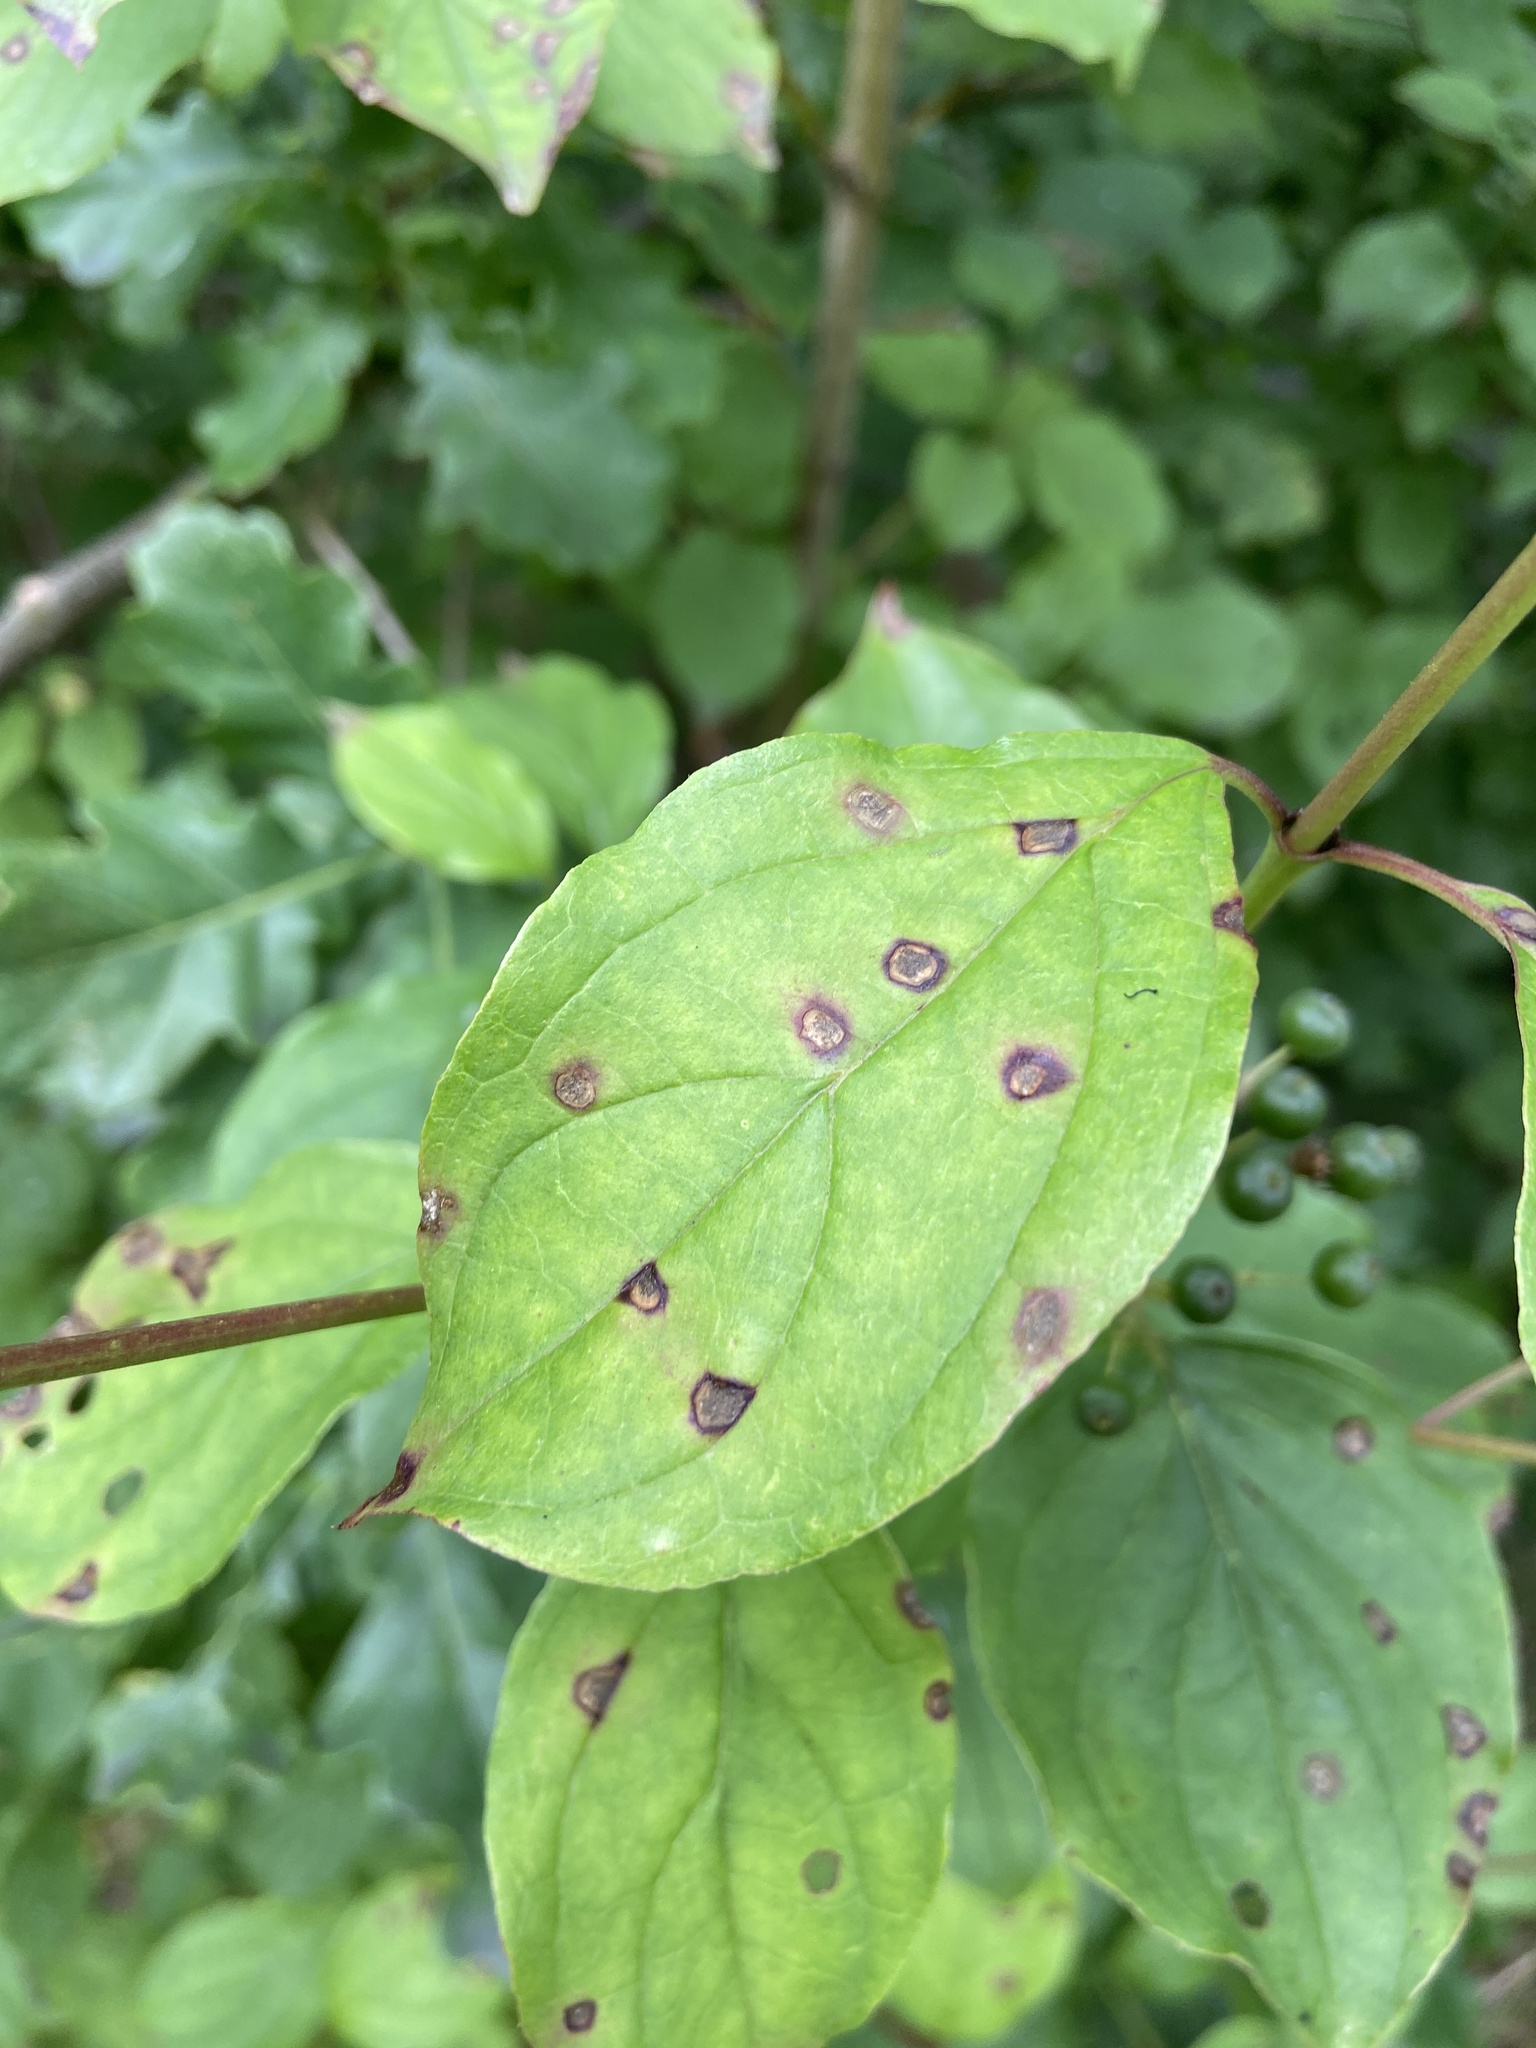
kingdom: Fungi
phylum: Ascomycota
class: Dothideomycetes
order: Mycosphaerellales
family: Mycosphaerellaceae
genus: Sphaerulina
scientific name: Sphaerulina cornicola
